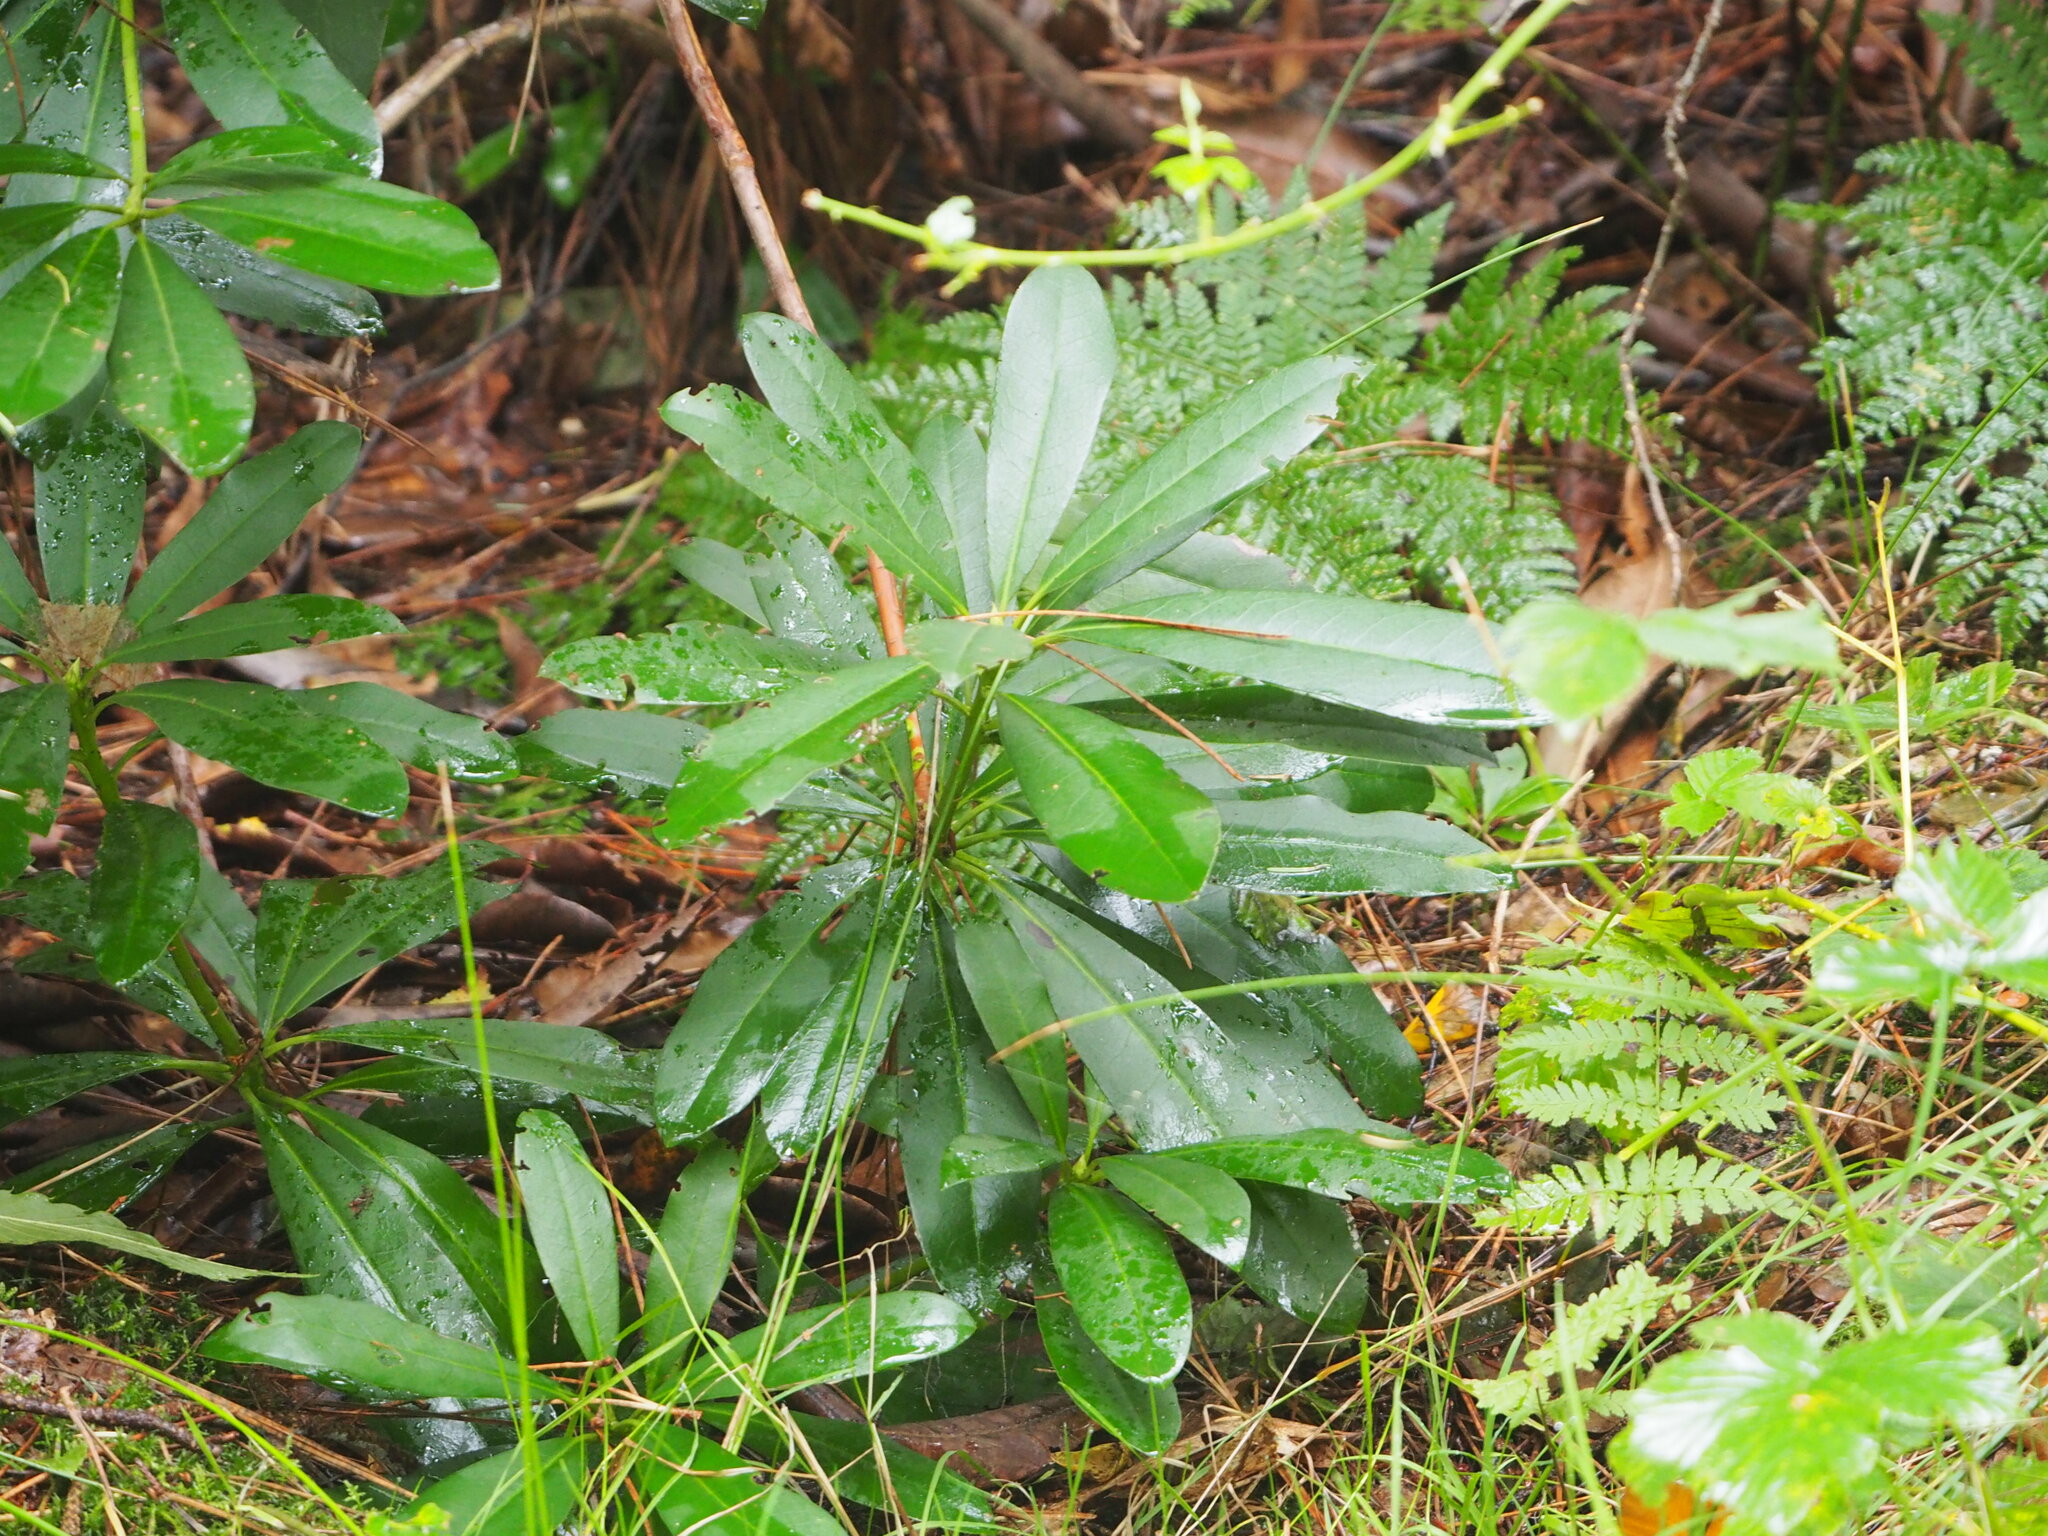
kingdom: Plantae
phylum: Tracheophyta
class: Magnoliopsida
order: Ericales
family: Ericaceae
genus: Rhododendron
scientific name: Rhododendron ponticum
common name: Rhododendron
